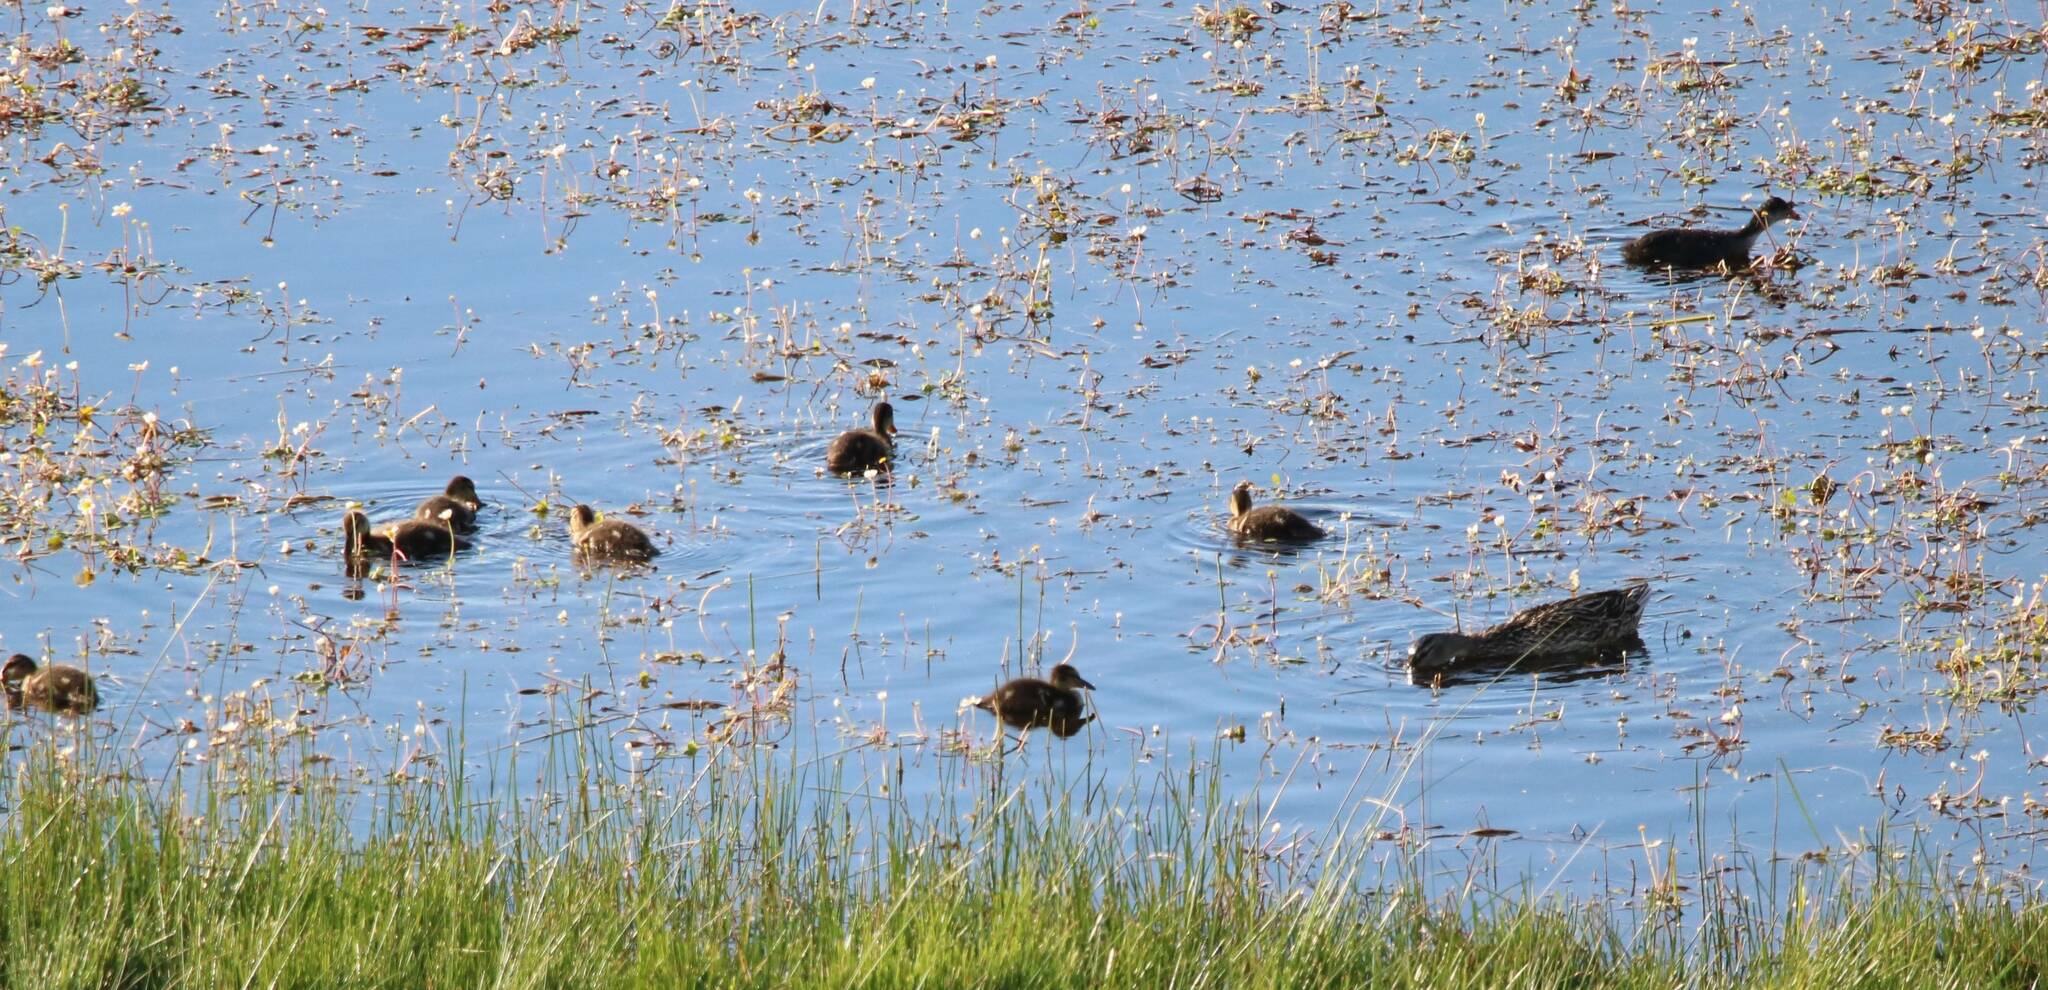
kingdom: Animalia
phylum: Chordata
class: Aves
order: Anseriformes
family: Anatidae
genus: Anas
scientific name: Anas platyrhynchos
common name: Mallard
